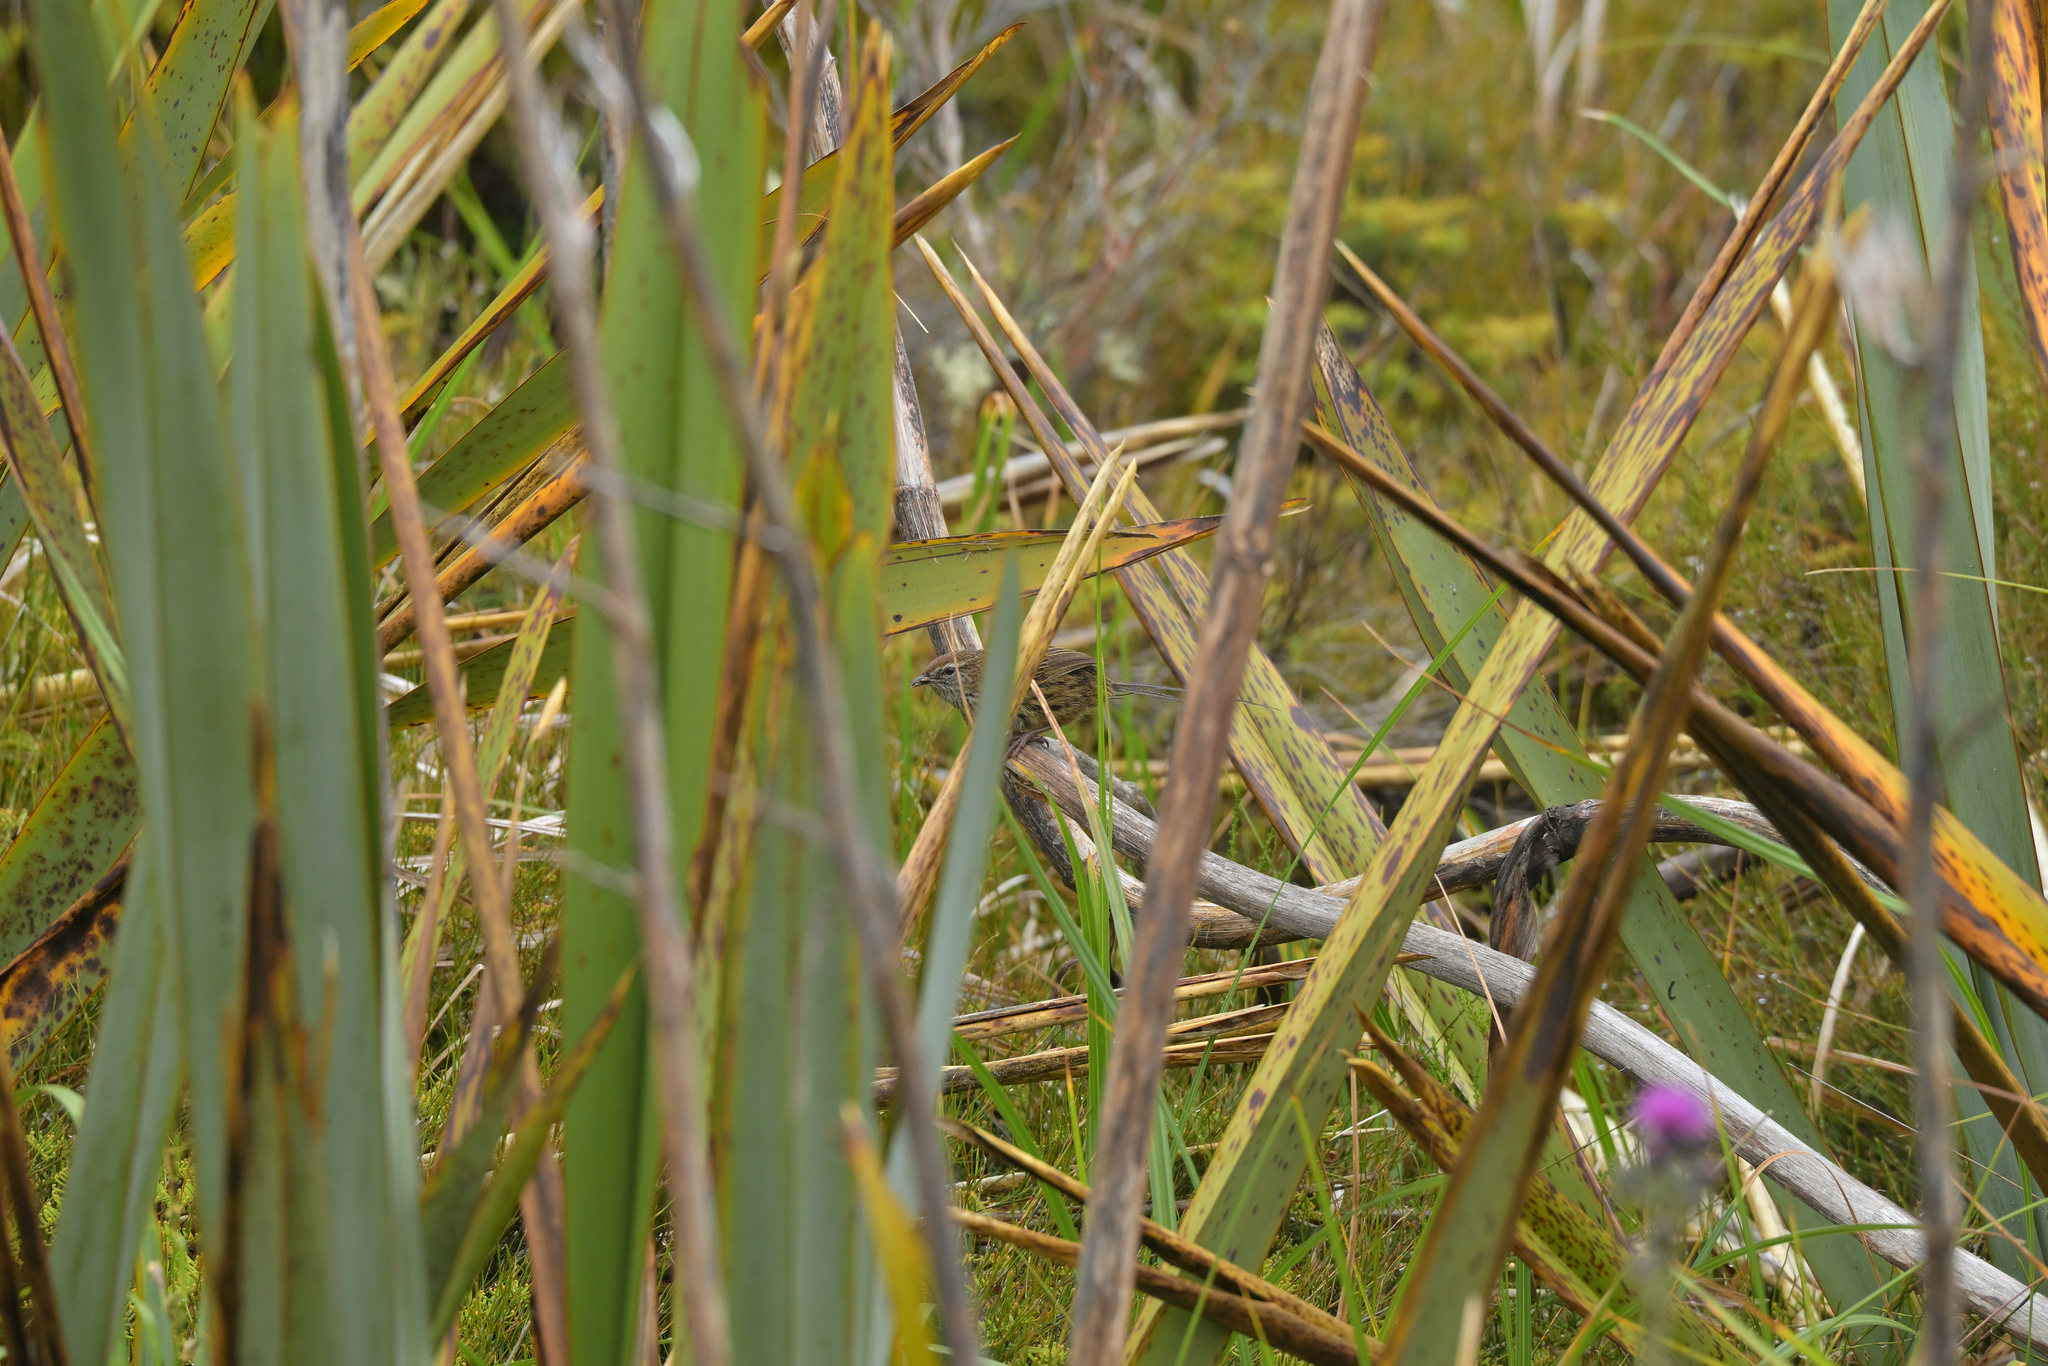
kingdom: Animalia
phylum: Chordata
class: Aves
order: Passeriformes
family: Locustellidae
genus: Megalurus
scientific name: Megalurus punctatus
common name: New zealand fernbird
